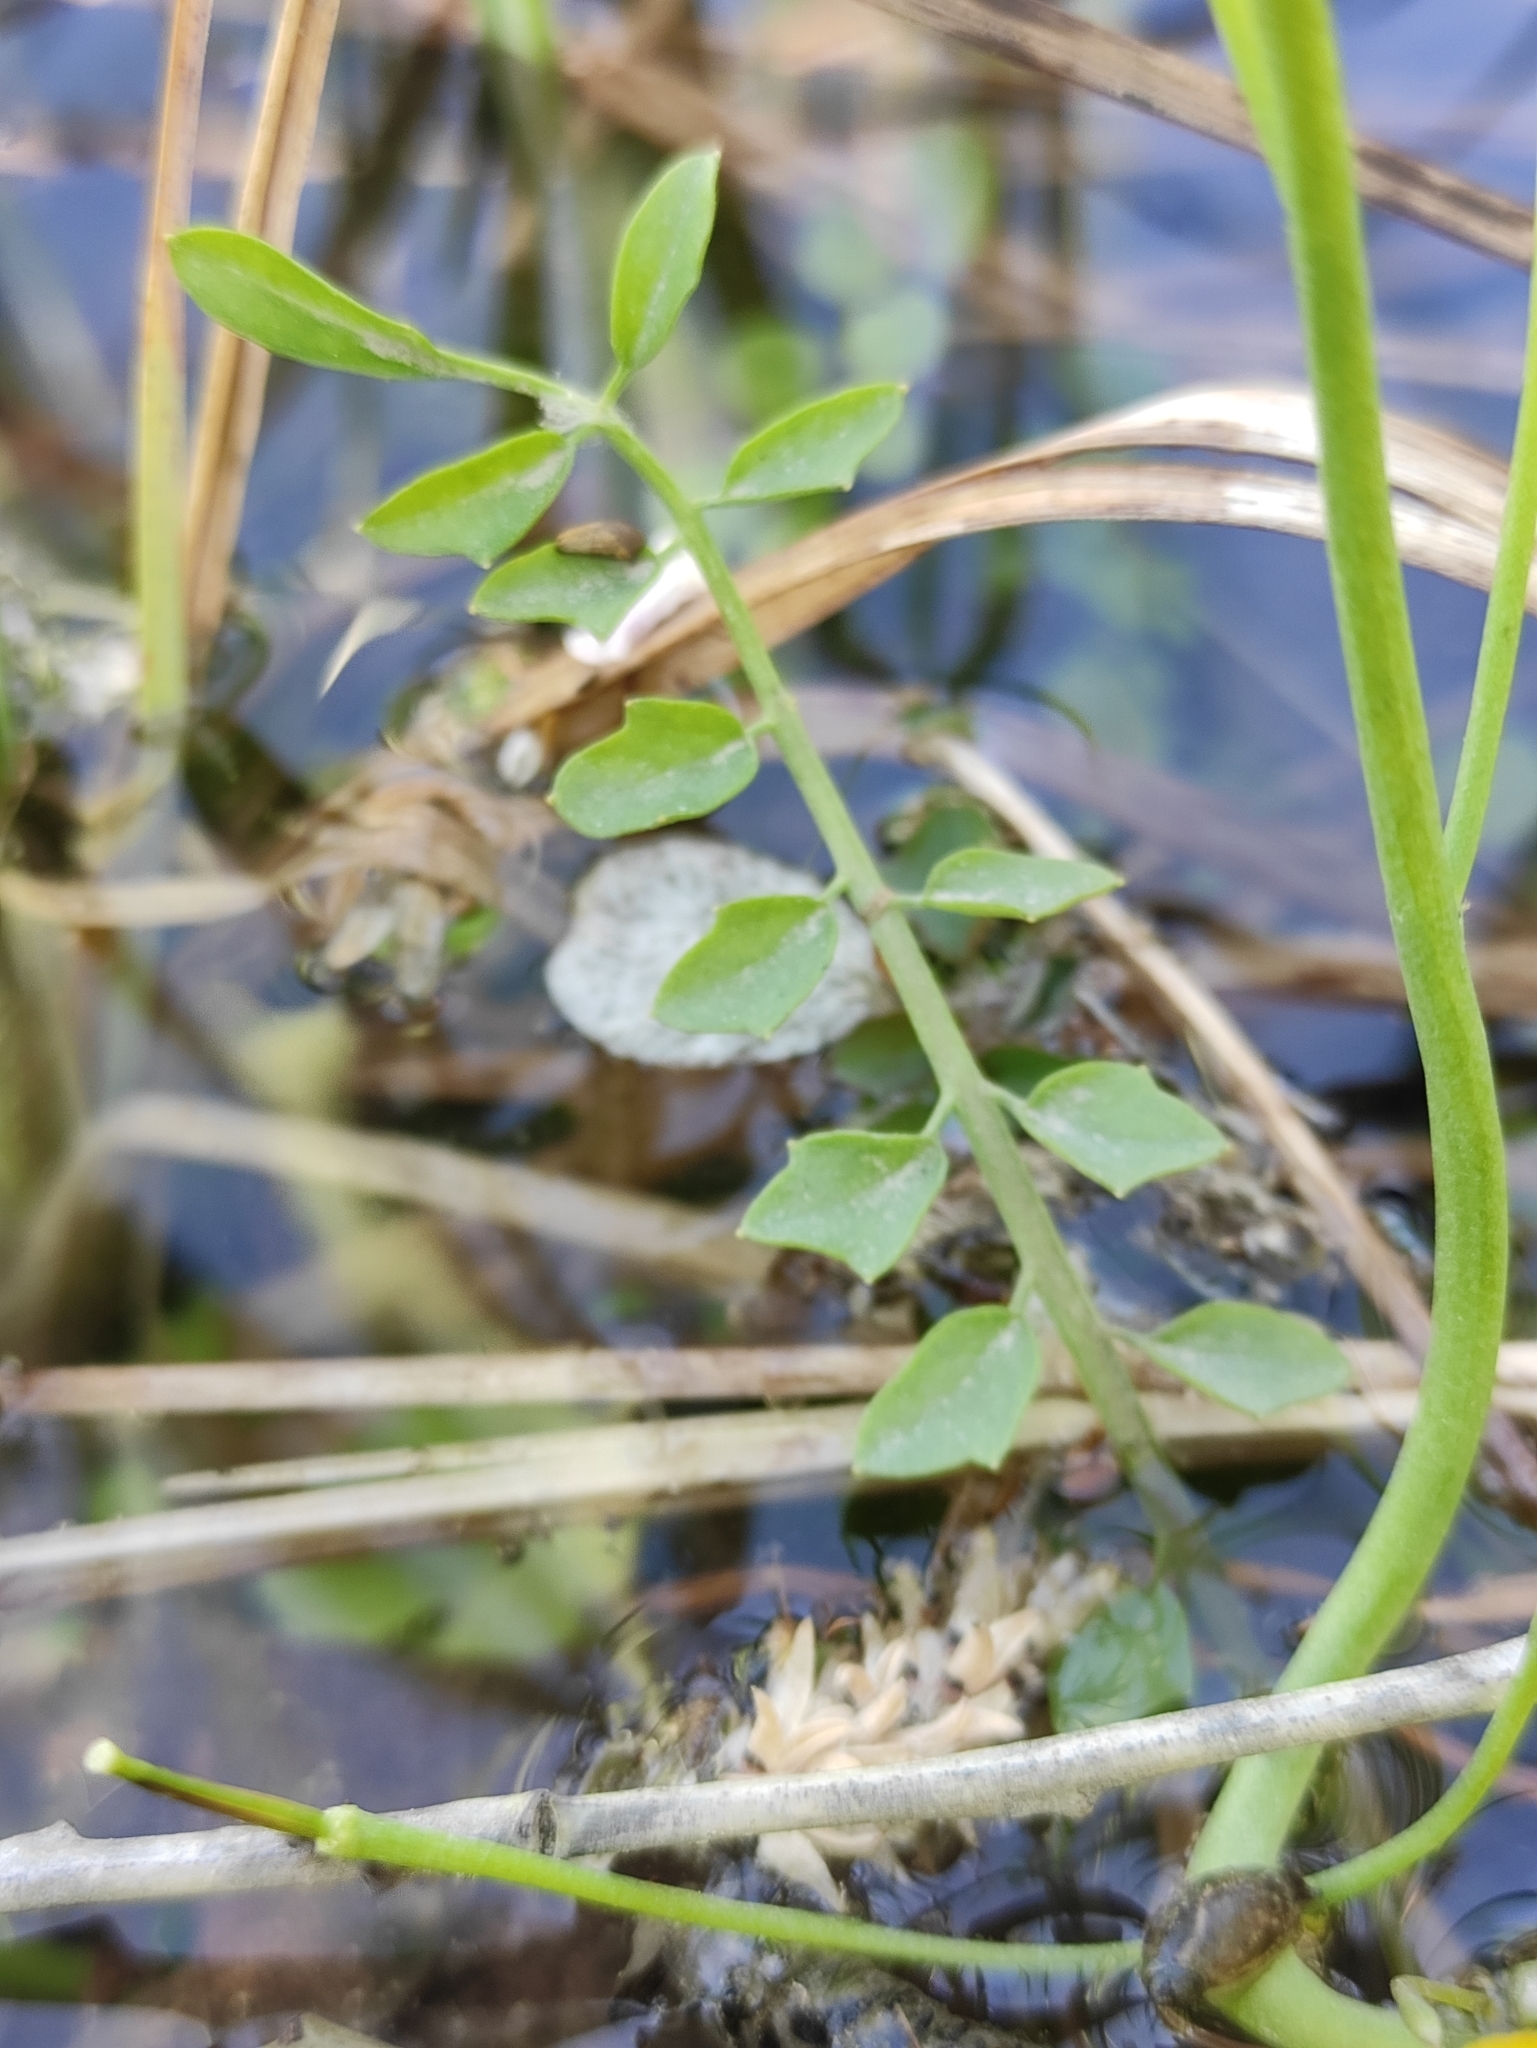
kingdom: Plantae
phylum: Tracheophyta
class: Magnoliopsida
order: Brassicales
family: Brassicaceae
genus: Cardamine
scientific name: Cardamine dentata
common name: Toothed bittercress
